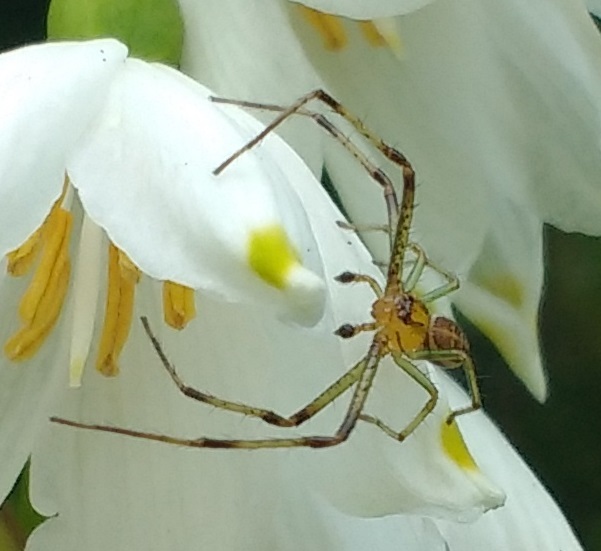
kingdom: Animalia
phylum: Arthropoda
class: Arachnida
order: Araneae
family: Thomisidae
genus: Diaea
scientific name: Diaea dorsata
